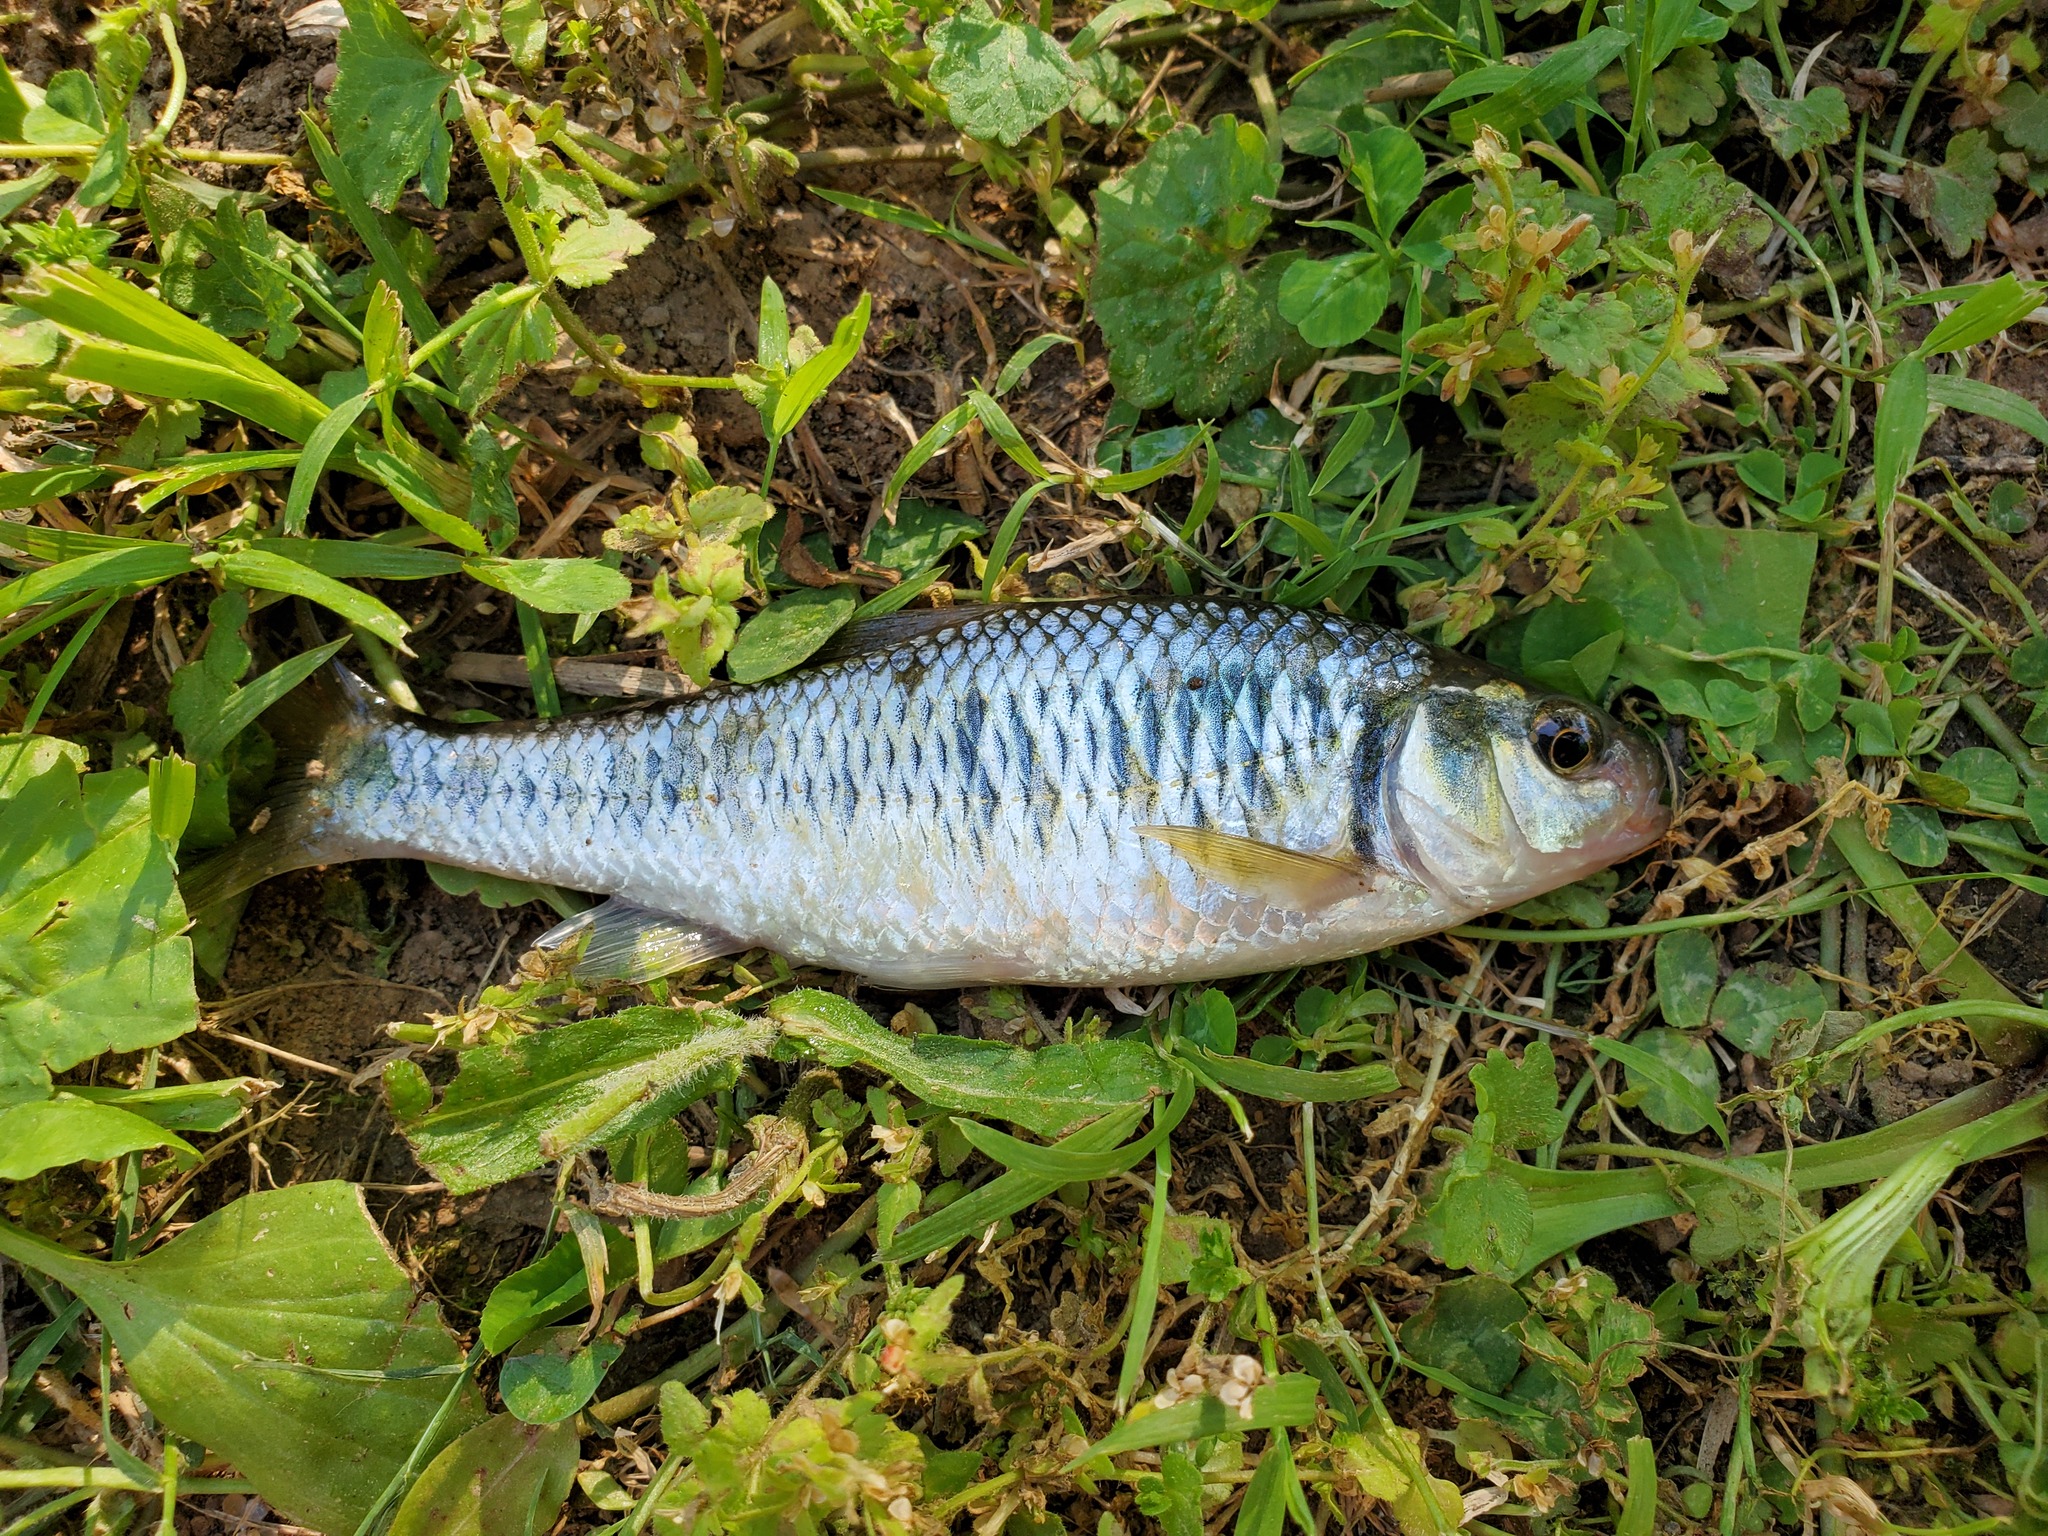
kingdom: Animalia
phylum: Chordata
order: Cypriniformes
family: Cyprinidae
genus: Luxilus
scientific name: Luxilus chrysocephalus
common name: Striped shiner
